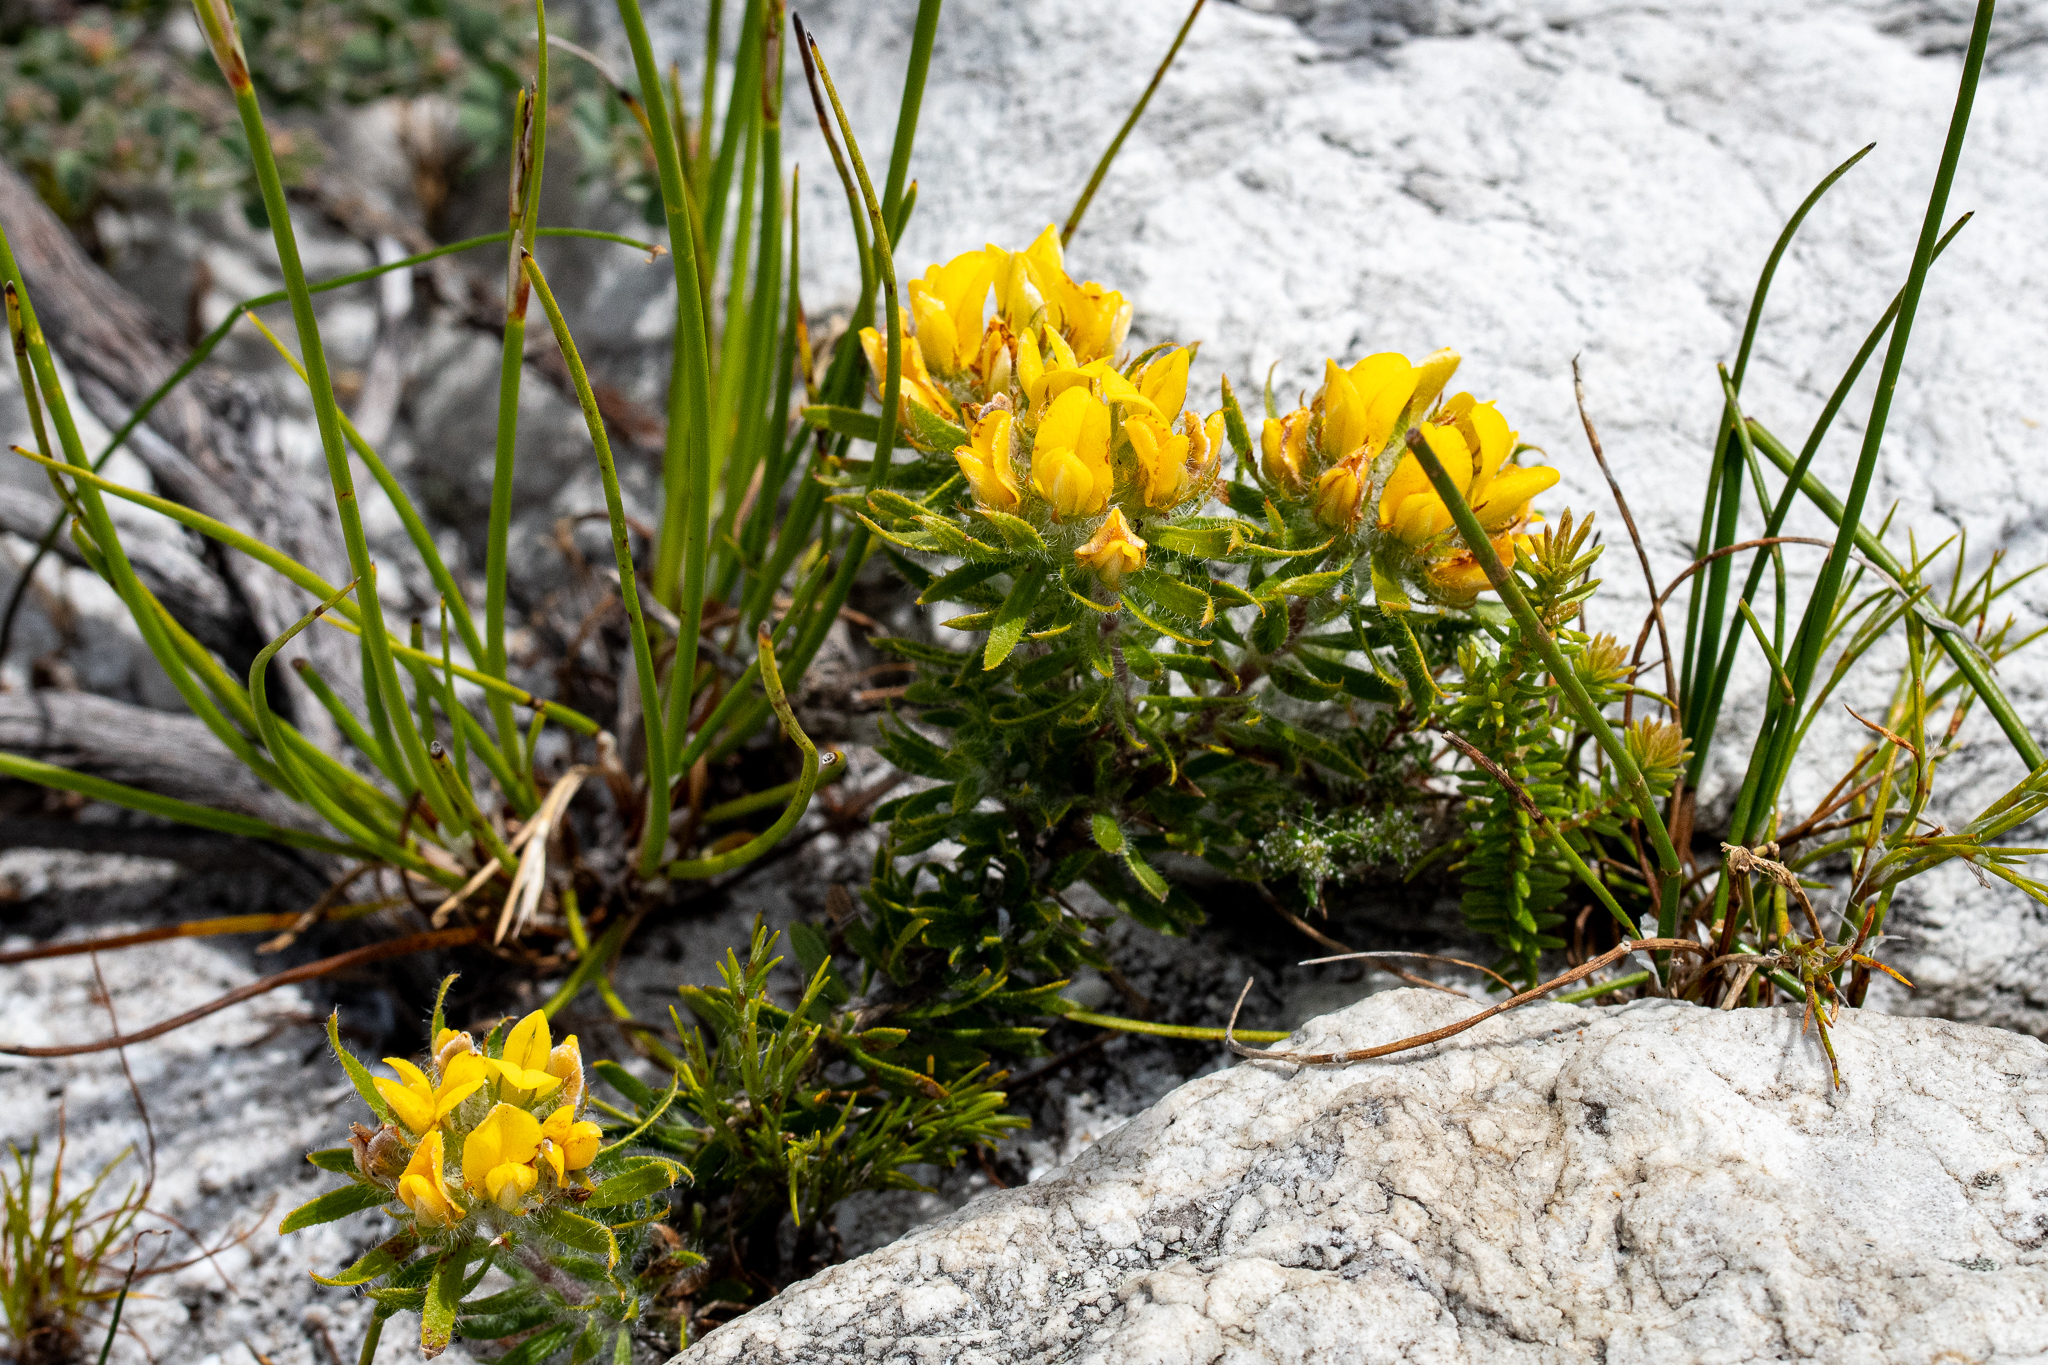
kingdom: Plantae
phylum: Tracheophyta
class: Magnoliopsida
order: Fabales
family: Fabaceae
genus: Aspalathus
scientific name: Aspalathus aspalathoides
